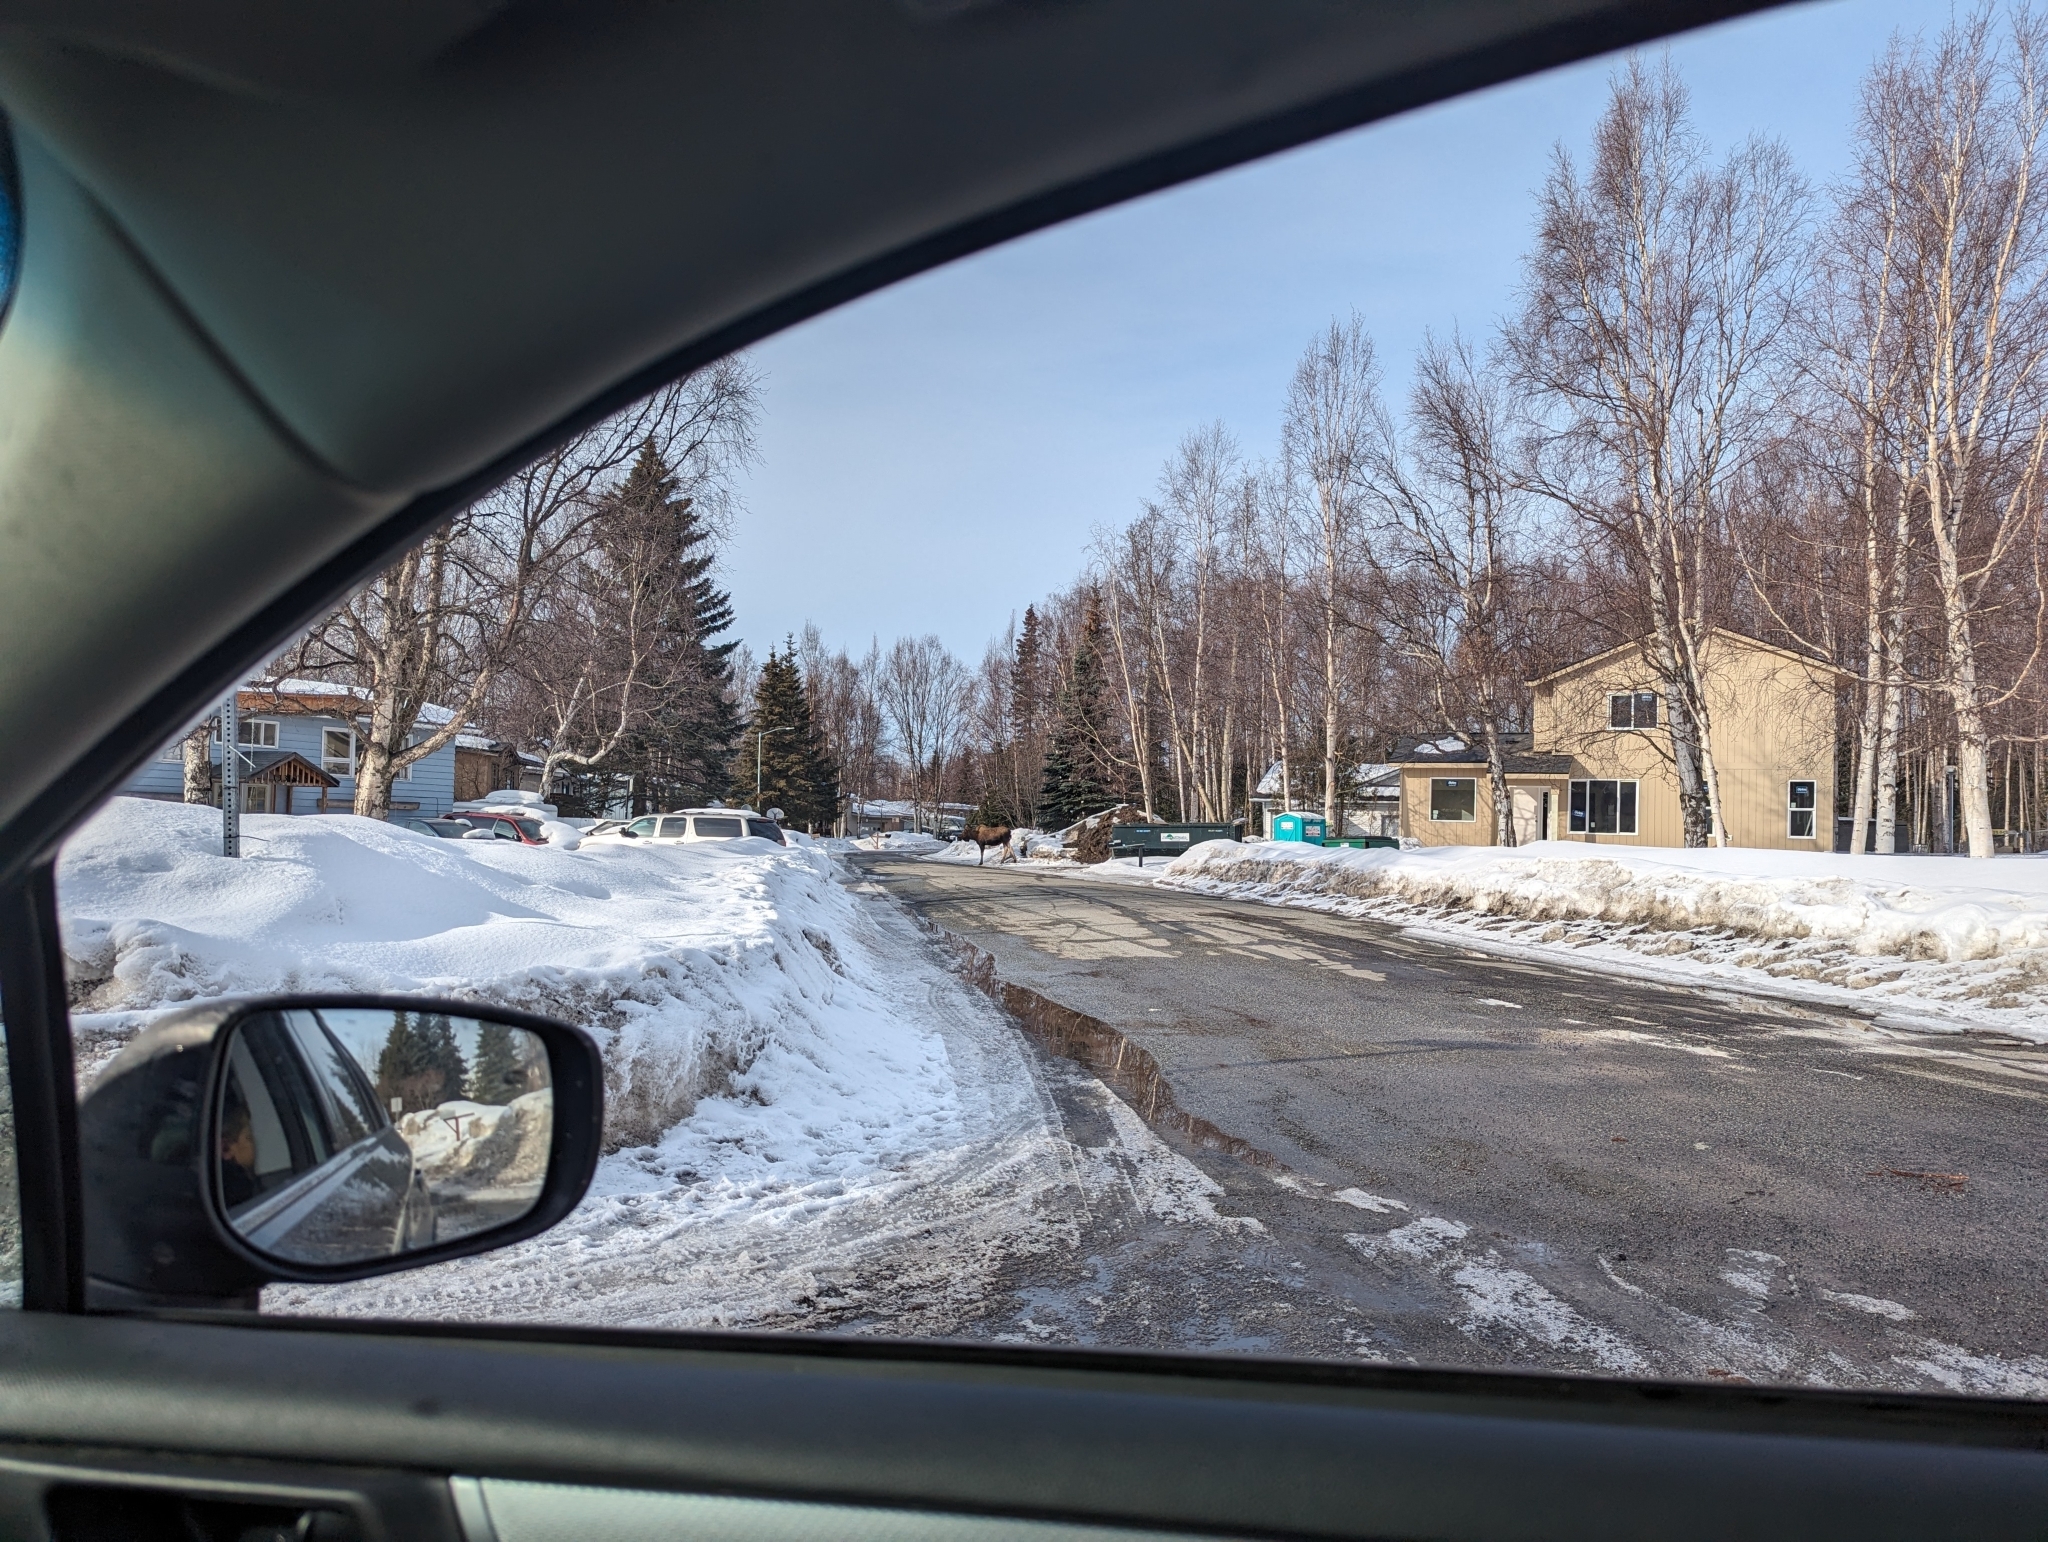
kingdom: Animalia
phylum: Chordata
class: Mammalia
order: Artiodactyla
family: Cervidae
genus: Alces
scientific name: Alces alces
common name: Moose
